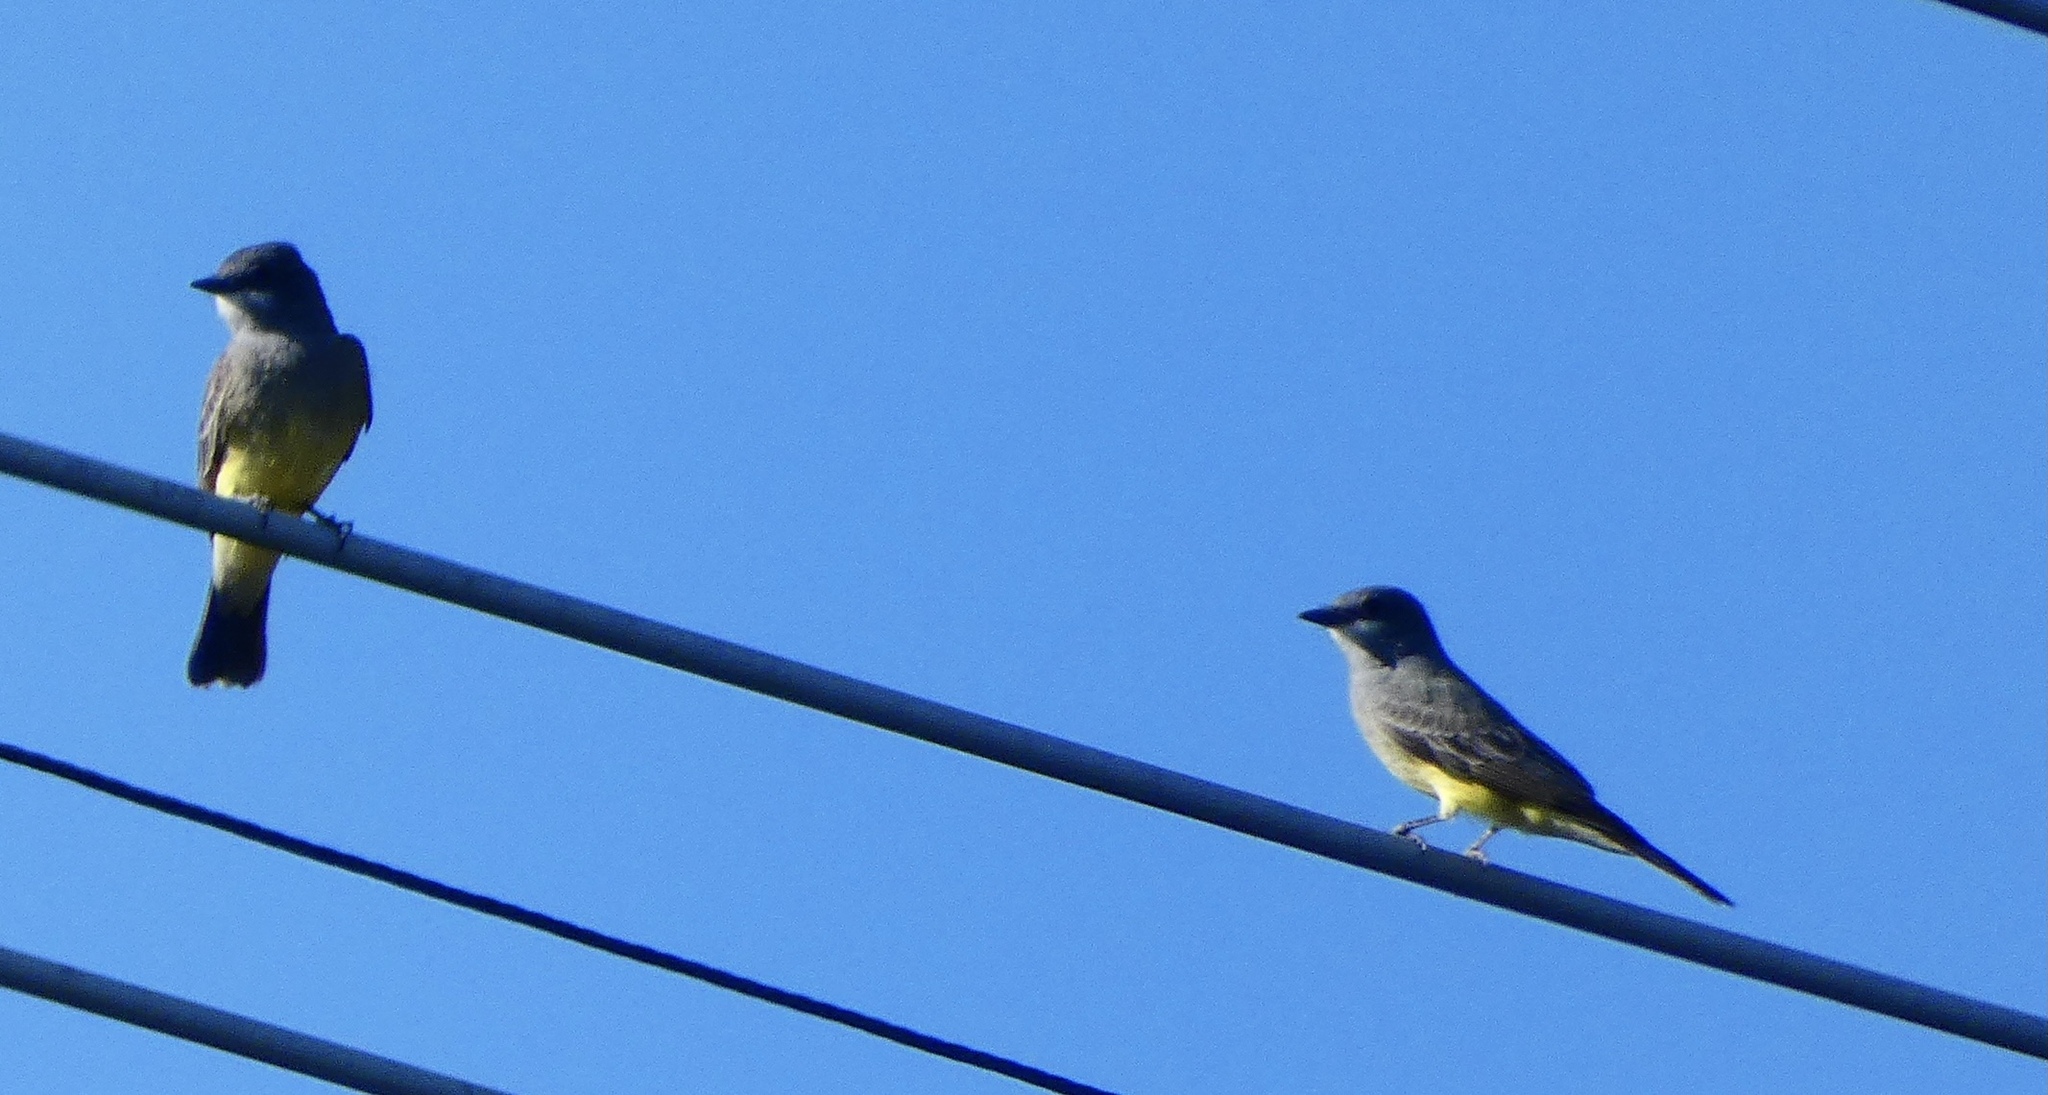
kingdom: Animalia
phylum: Chordata
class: Aves
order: Passeriformes
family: Tyrannidae
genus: Tyrannus
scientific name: Tyrannus vociferans
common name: Cassin's kingbird
